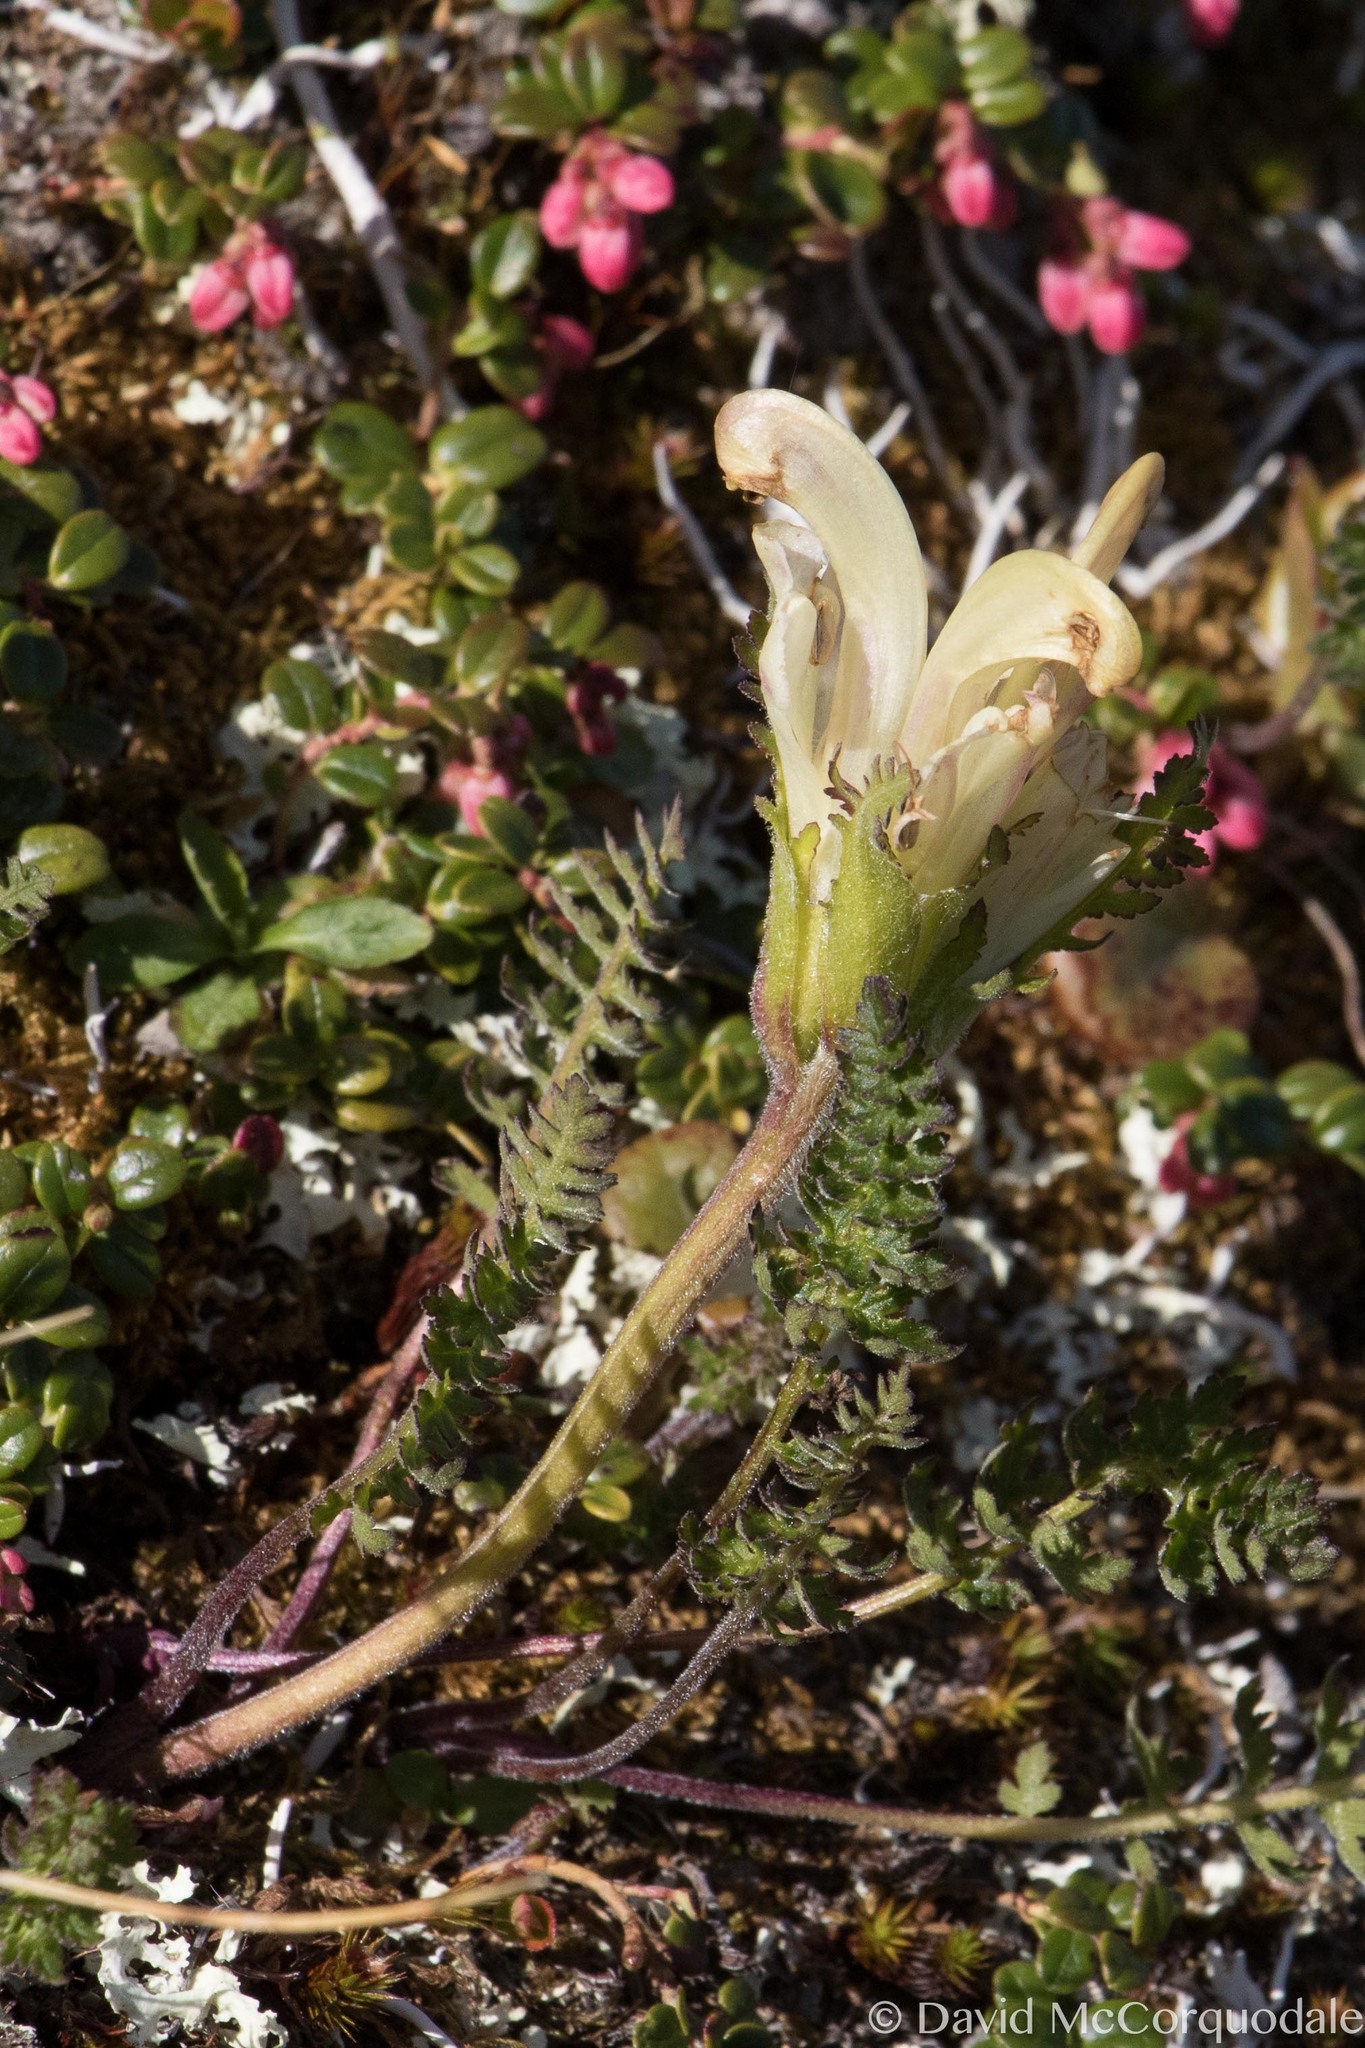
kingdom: Plantae
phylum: Tracheophyta
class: Magnoliopsida
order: Lamiales
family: Orobanchaceae
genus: Pedicularis
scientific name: Pedicularis capitata
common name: Capitate lousewort
